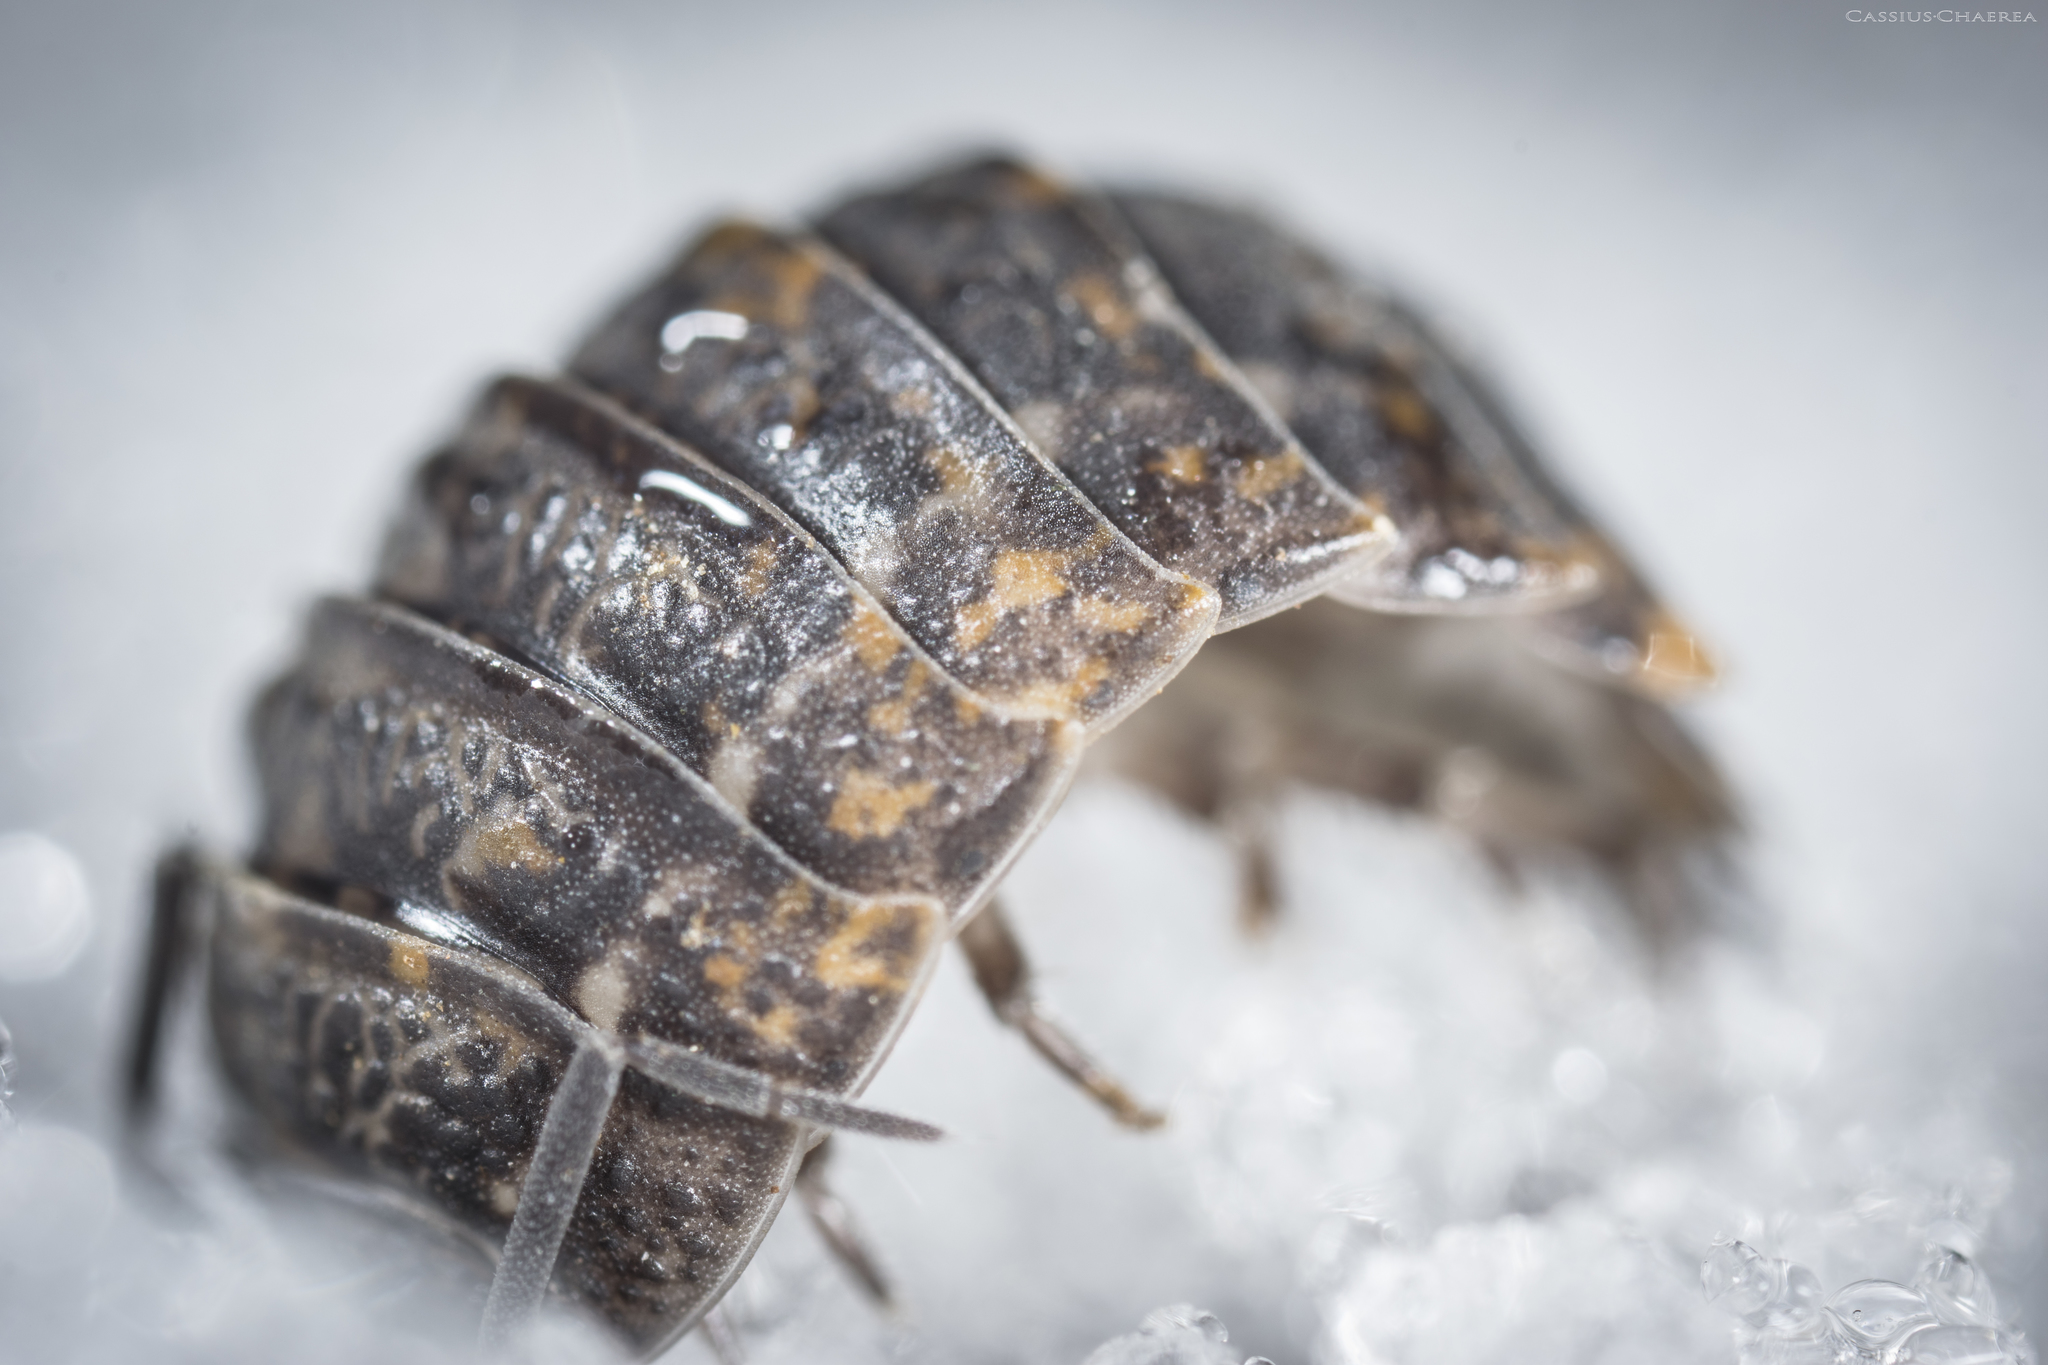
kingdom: Animalia
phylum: Arthropoda
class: Malacostraca
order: Isopoda
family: Trachelipodidae
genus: Trachelipus
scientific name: Trachelipus rathkii
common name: Isopod
